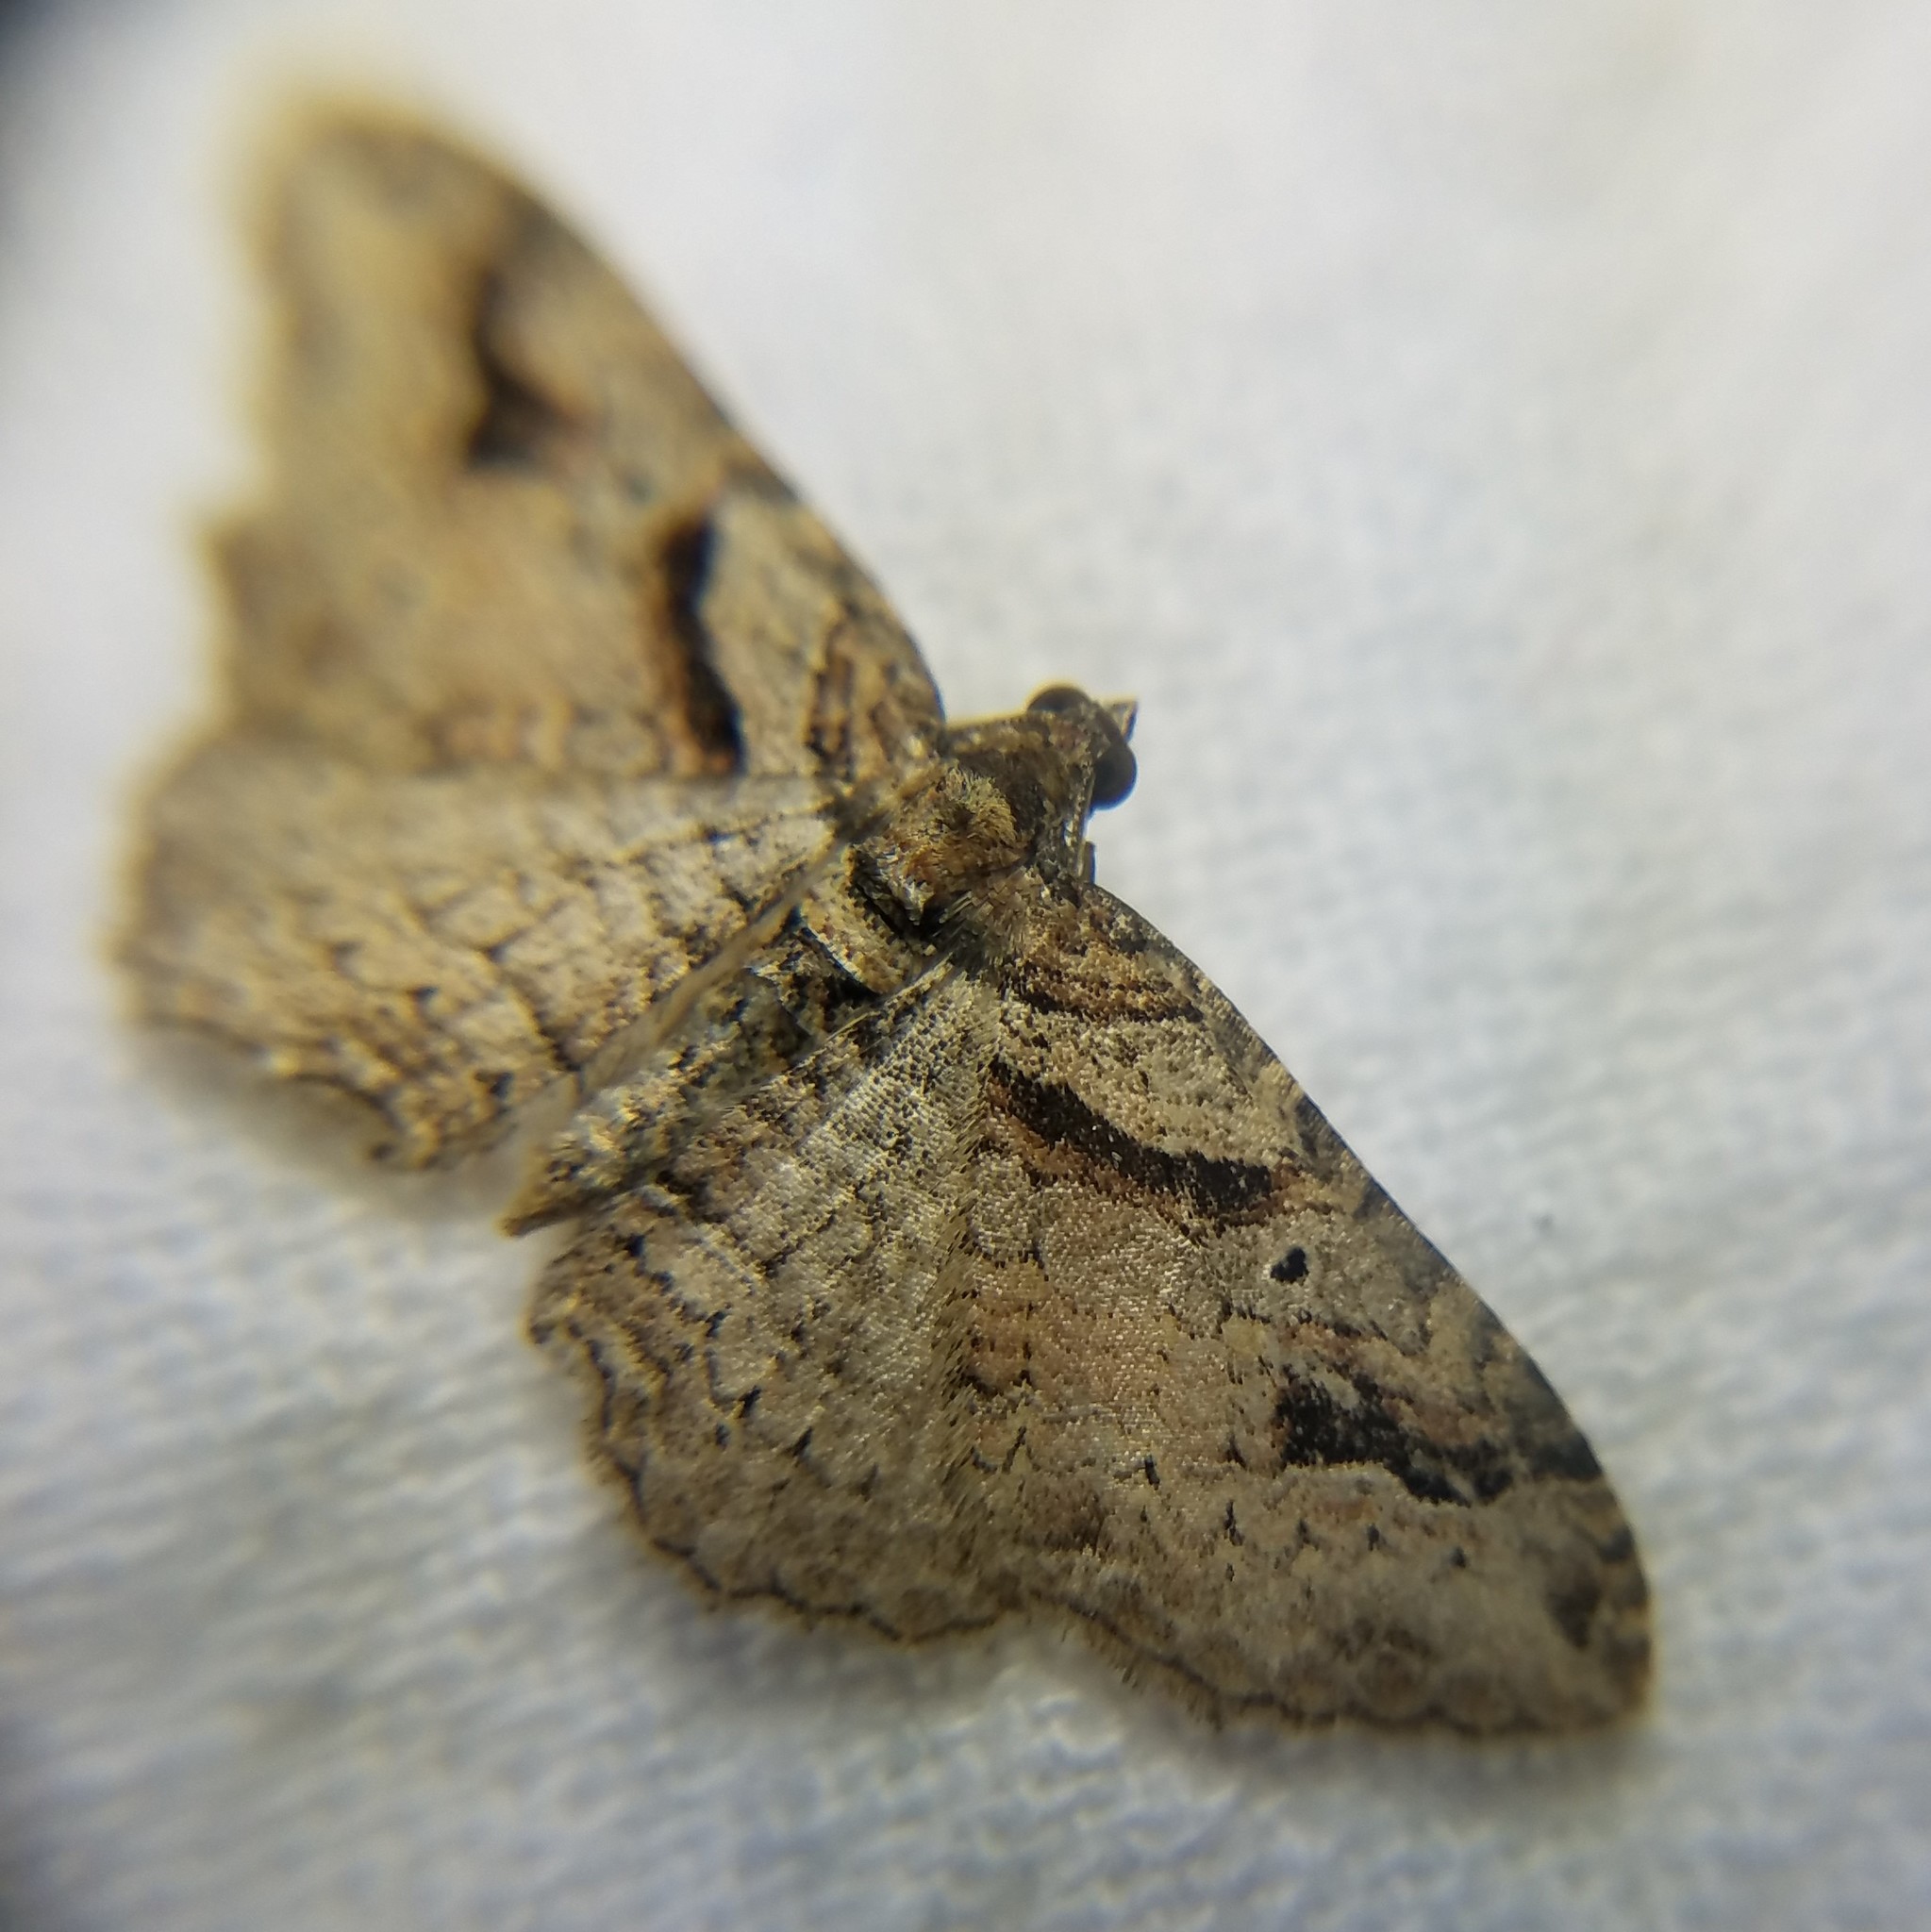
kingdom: Animalia
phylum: Arthropoda
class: Insecta
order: Lepidoptera
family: Geometridae
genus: Costaconvexa
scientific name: Costaconvexa centrostrigaria
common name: Bent-line carpet
